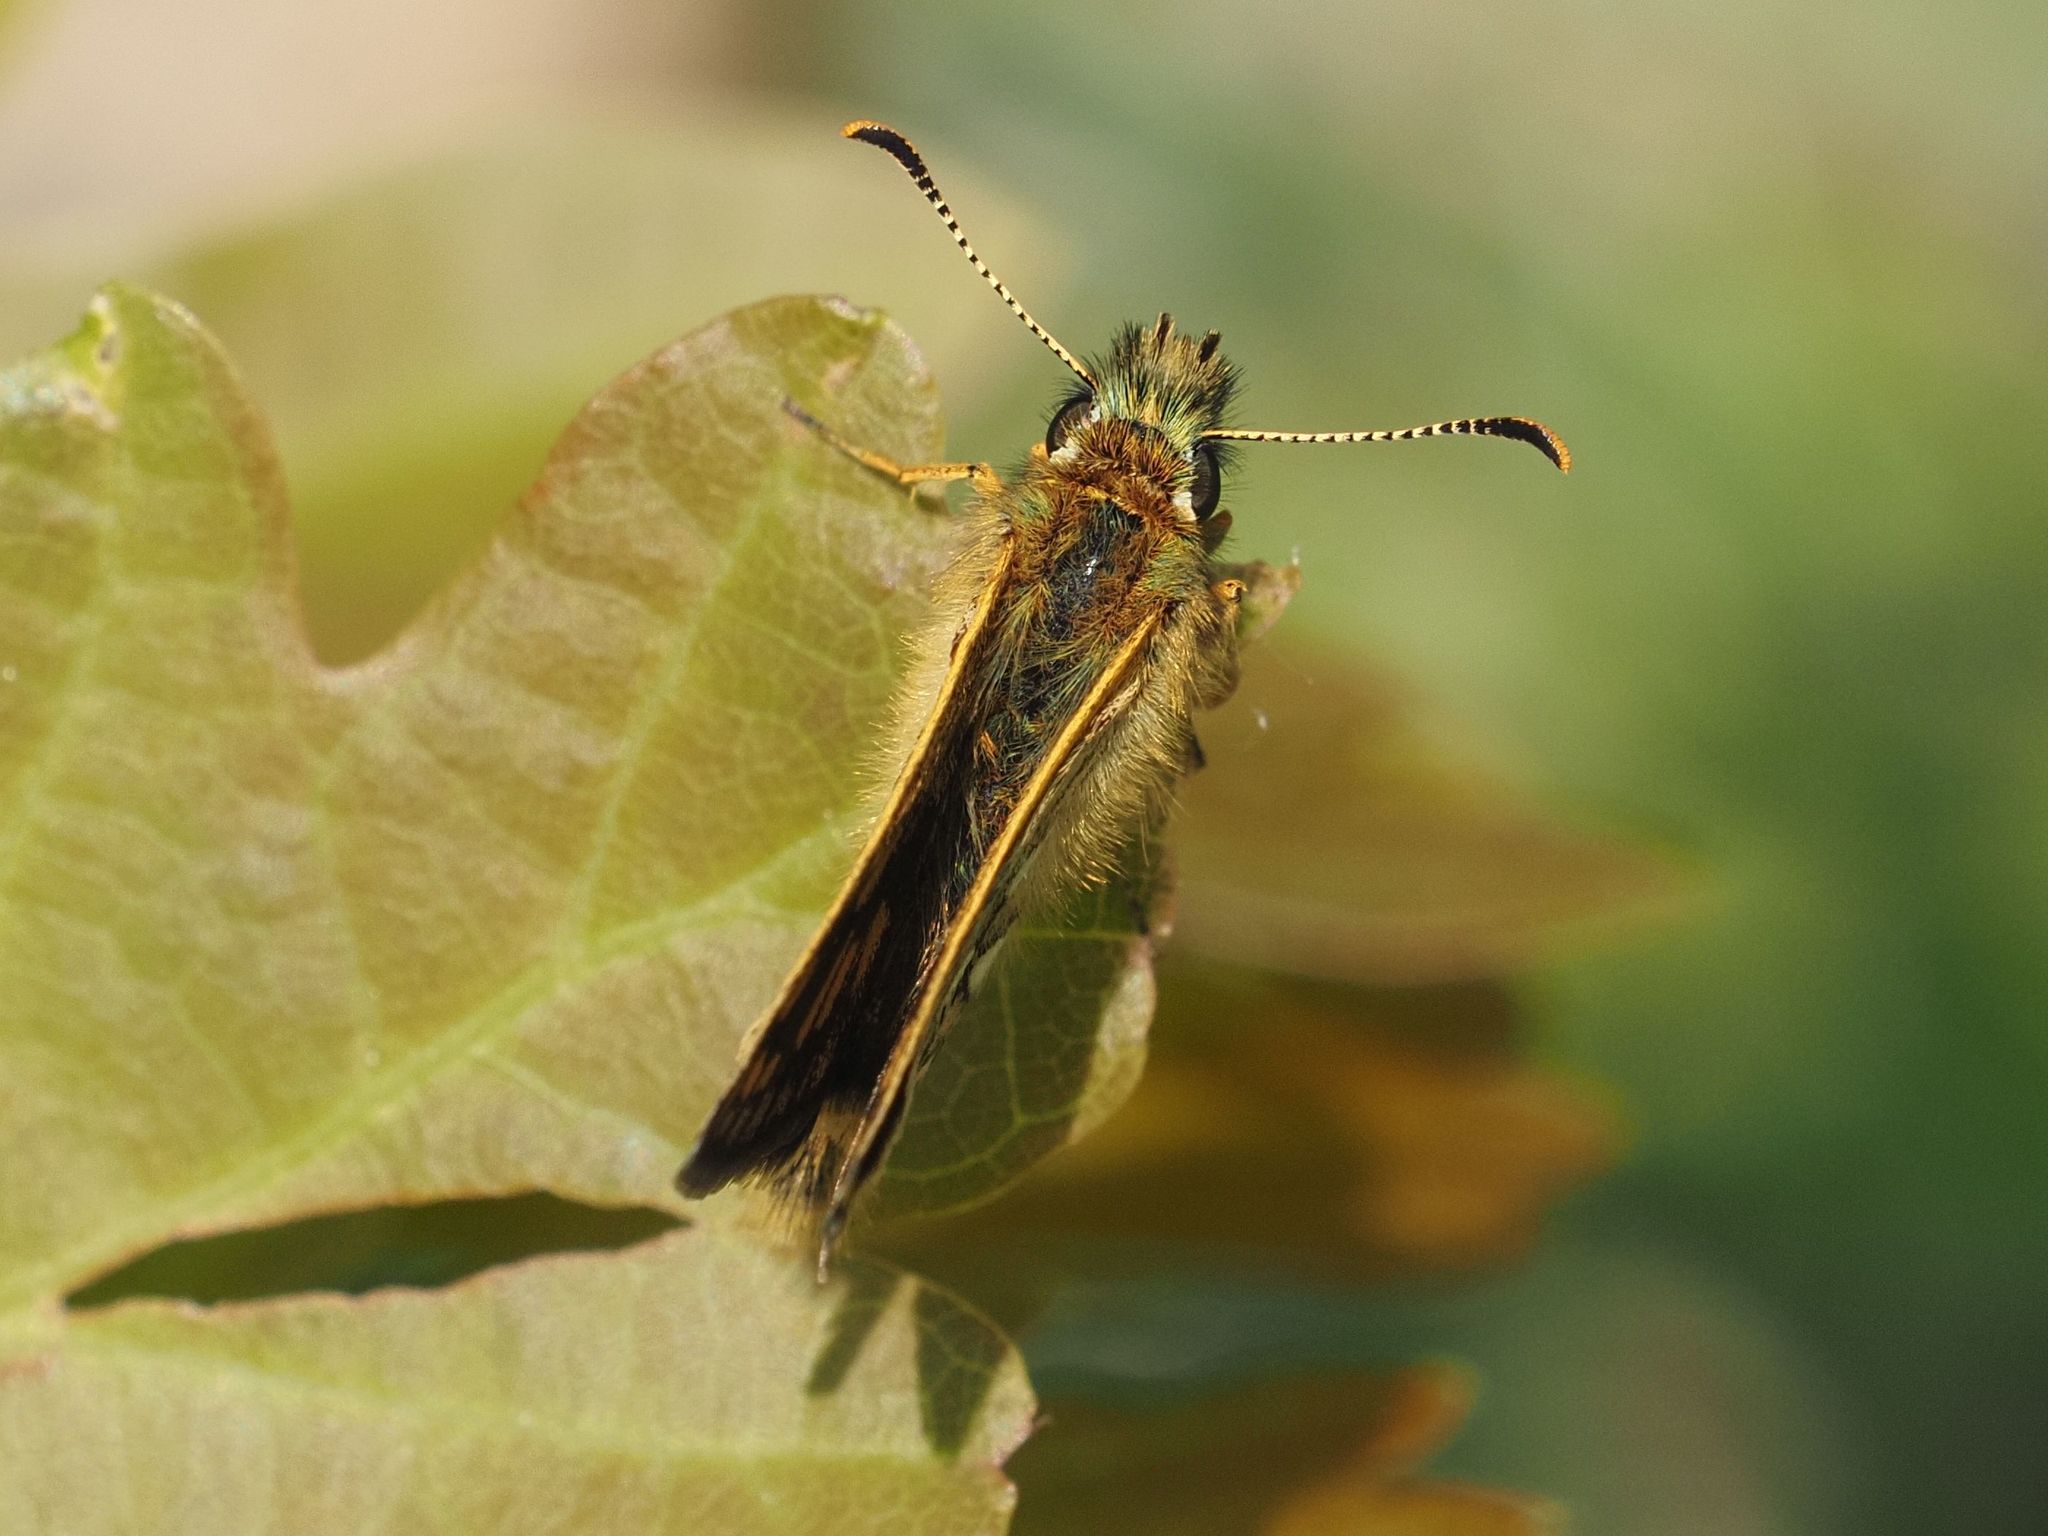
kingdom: Animalia
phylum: Arthropoda
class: Insecta
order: Lepidoptera
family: Hesperiidae
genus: Carterocephalus
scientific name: Carterocephalus palaemon
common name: Chequered skipper
